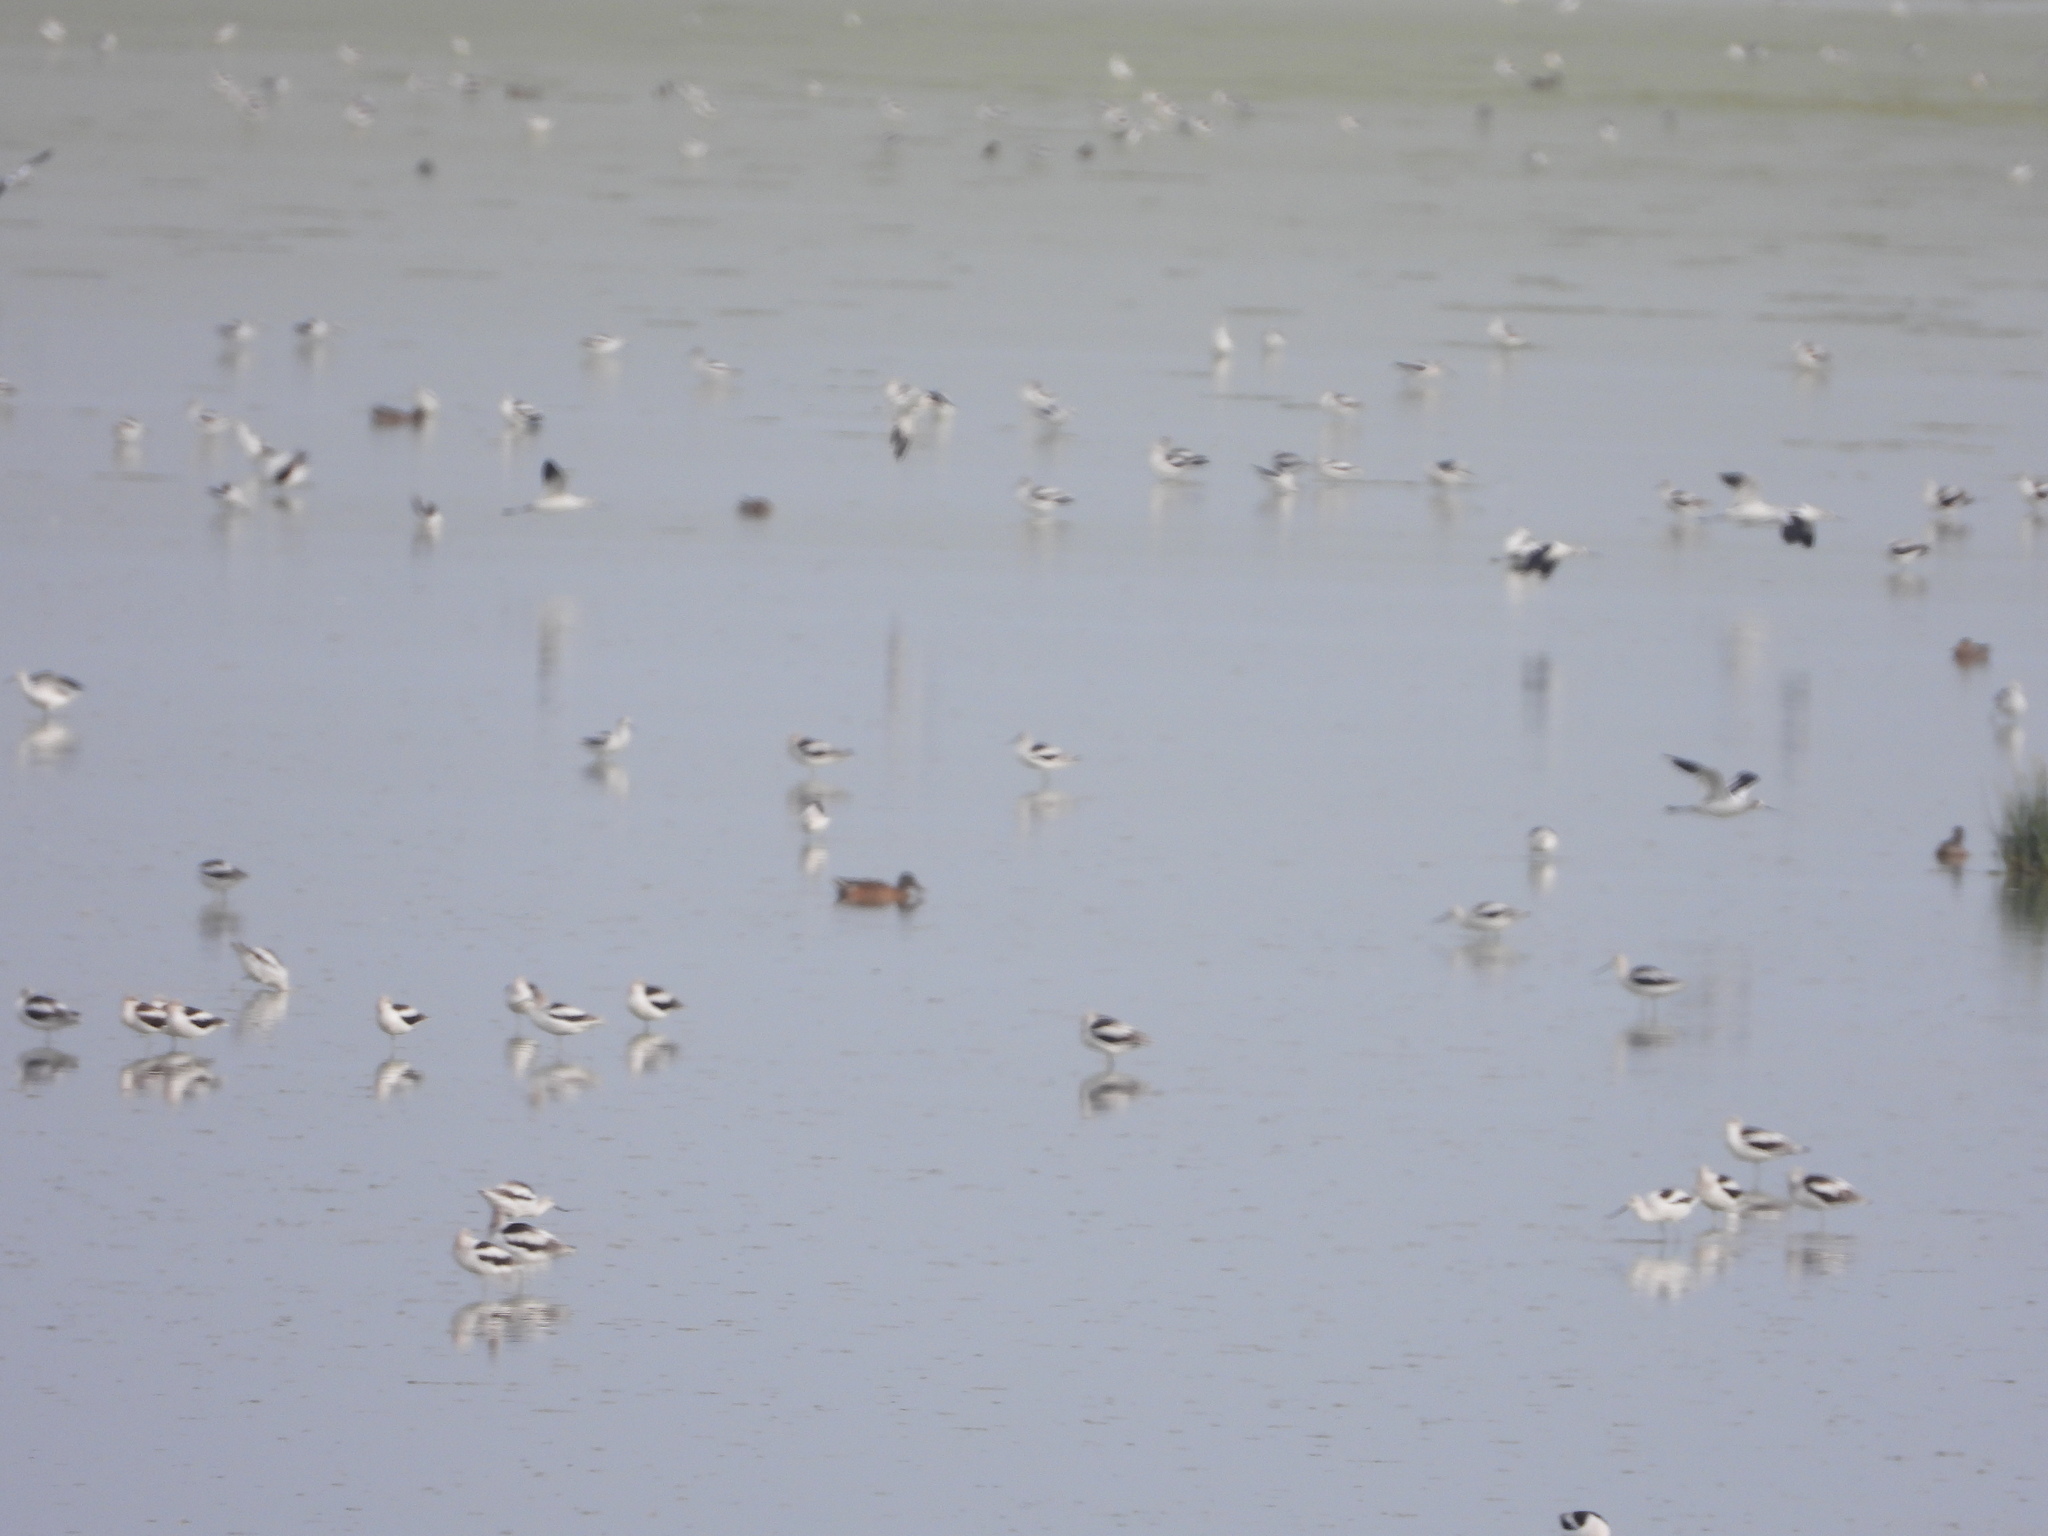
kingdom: Animalia
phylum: Chordata
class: Aves
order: Charadriiformes
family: Recurvirostridae
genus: Recurvirostra
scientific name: Recurvirostra americana
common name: American avocet
